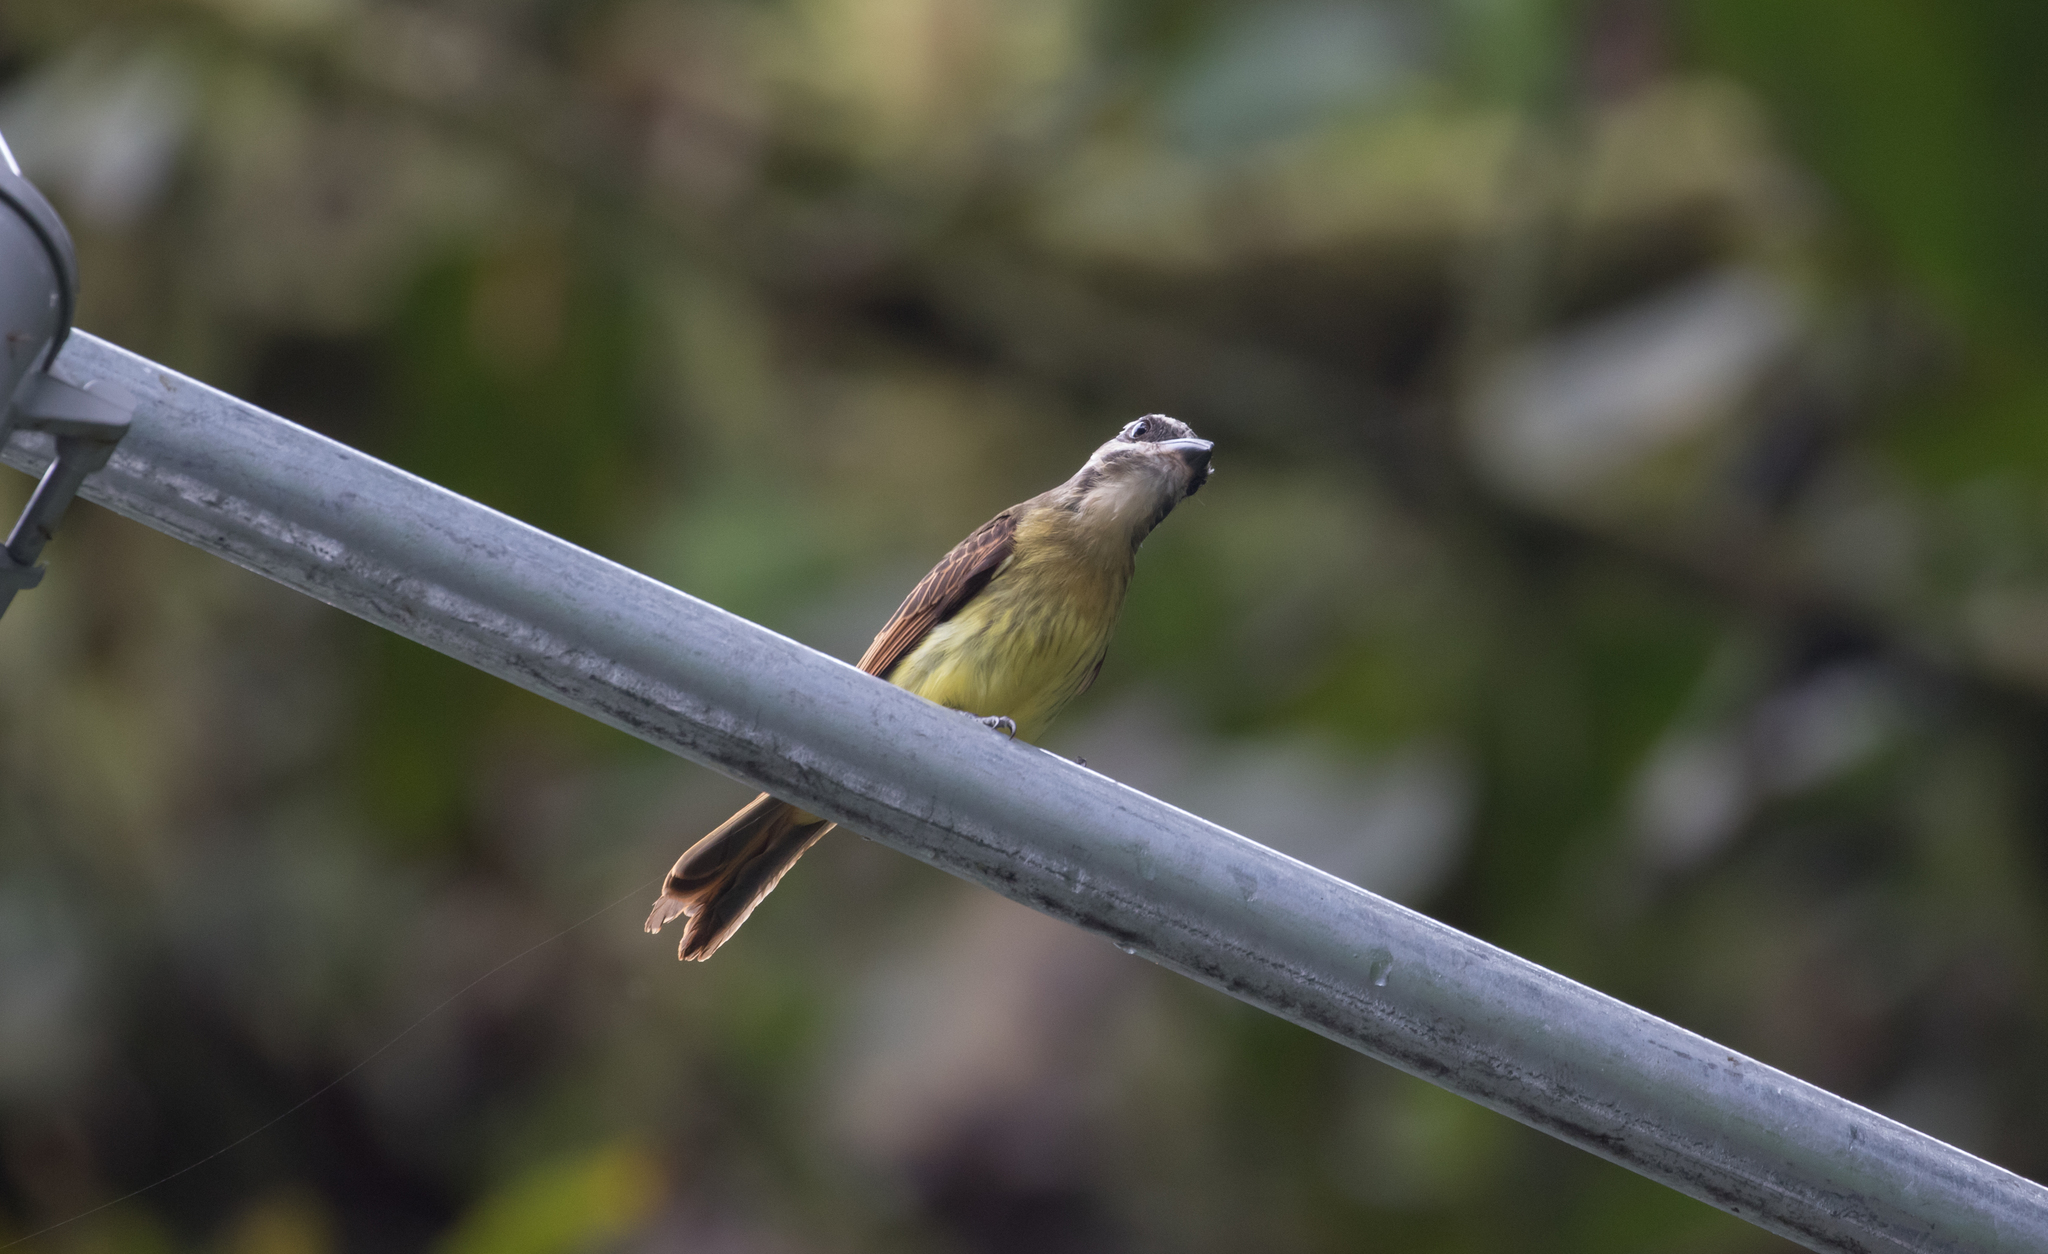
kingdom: Animalia
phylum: Chordata
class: Aves
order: Passeriformes
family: Tyrannidae
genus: Myiodynastes
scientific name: Myiodynastes hemichrysus
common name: Golden-bellied flycatcher
